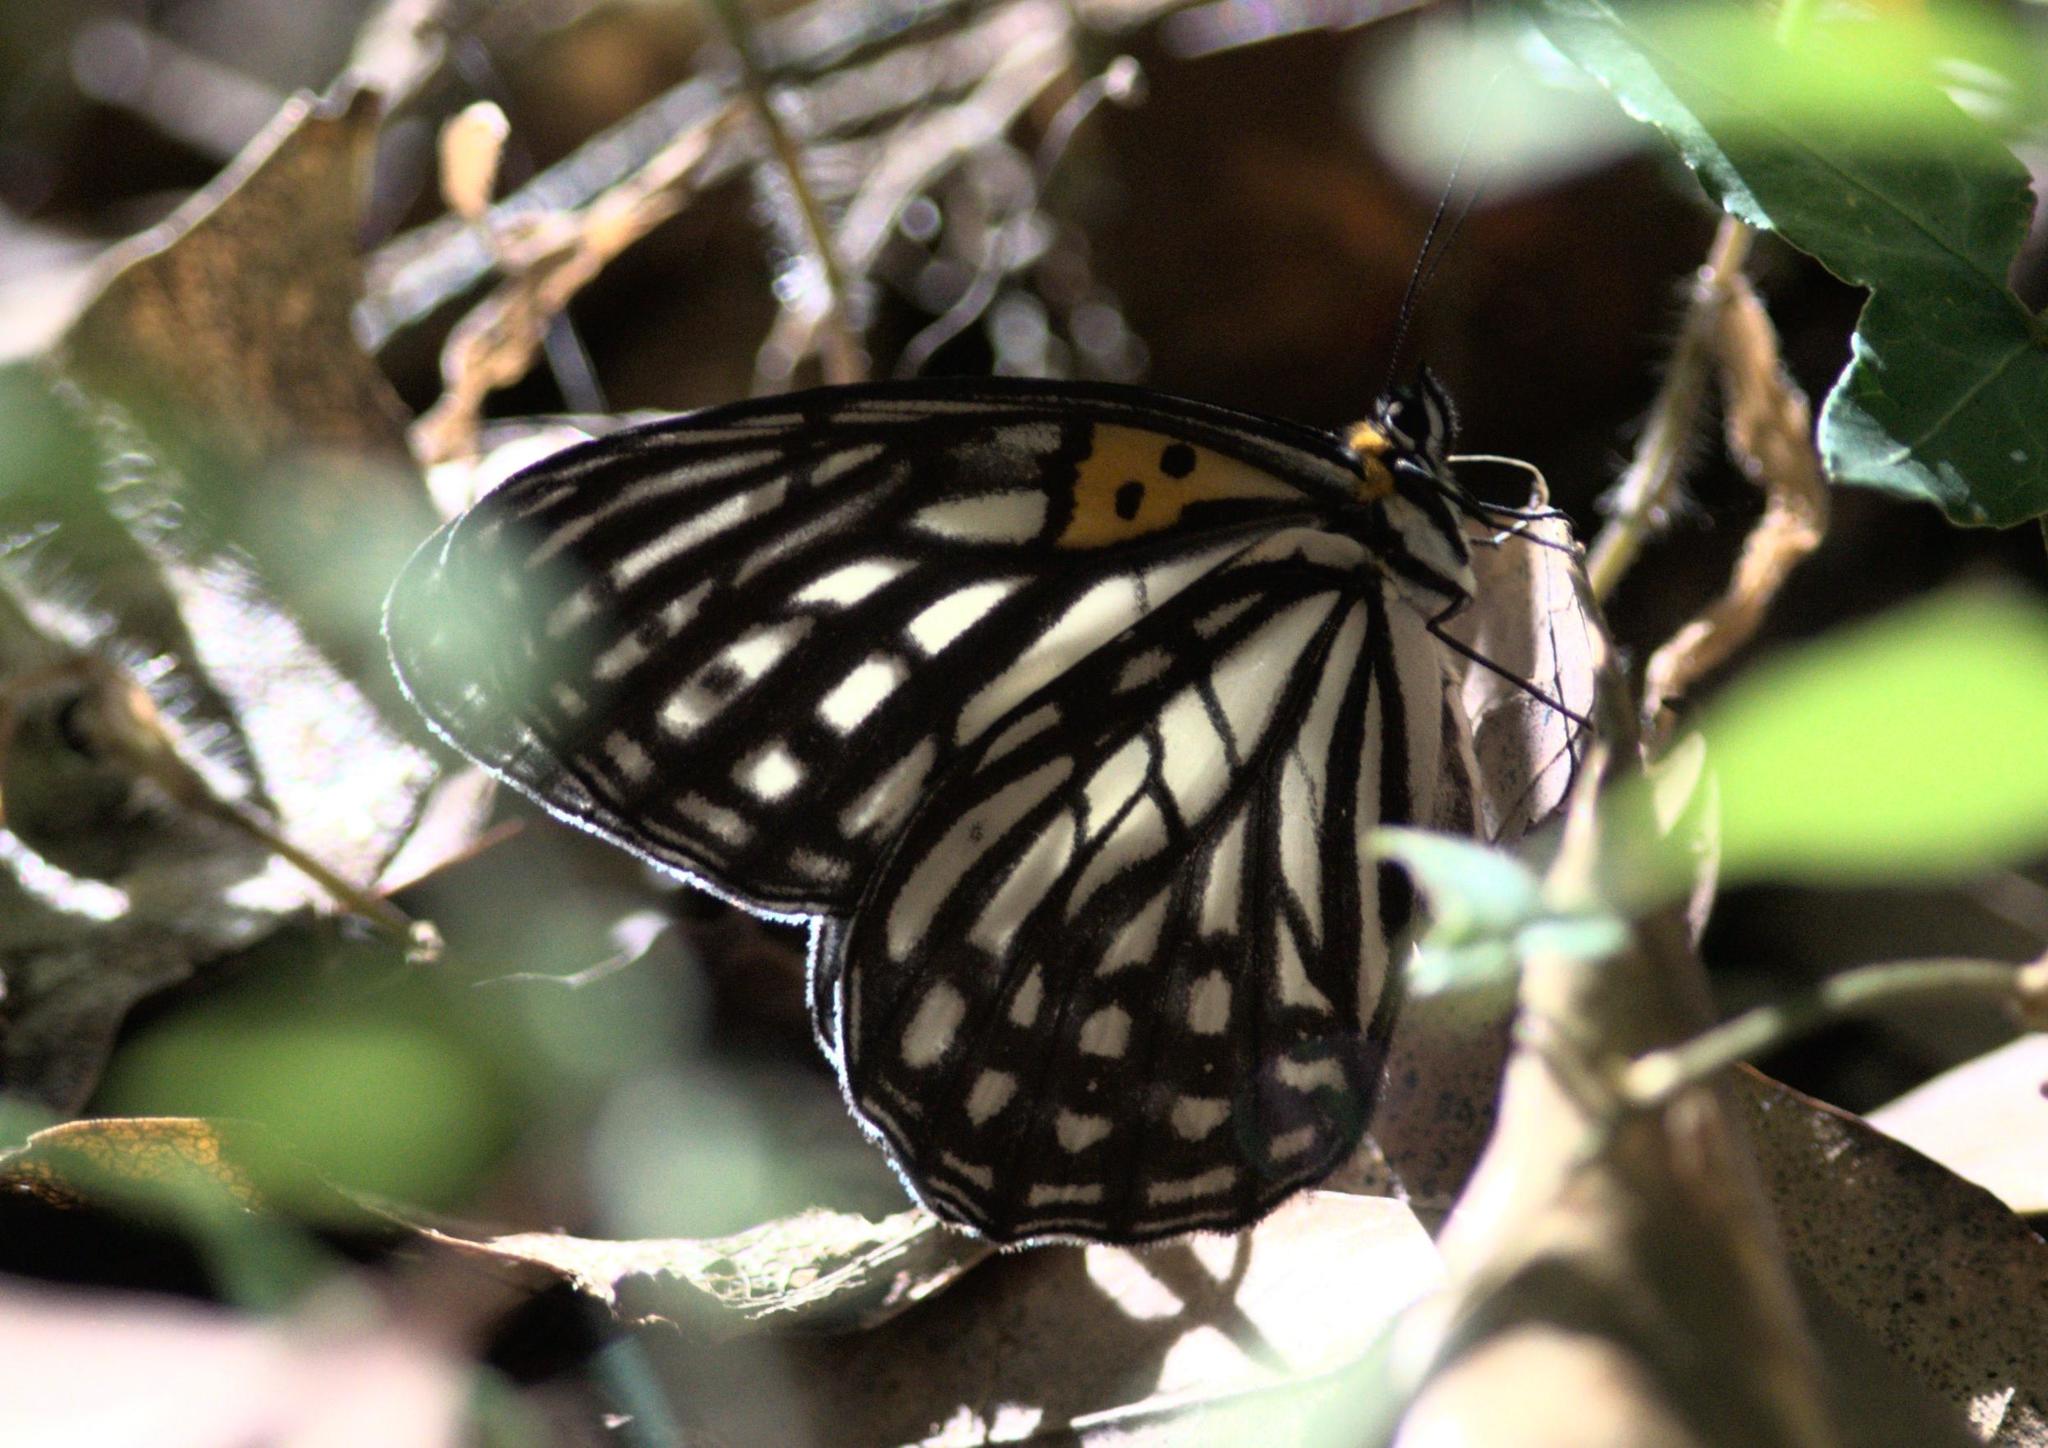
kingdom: Animalia
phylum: Arthropoda
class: Insecta
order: Lepidoptera
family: Nymphalidae
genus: Orinoma
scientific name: Orinoma damaris
